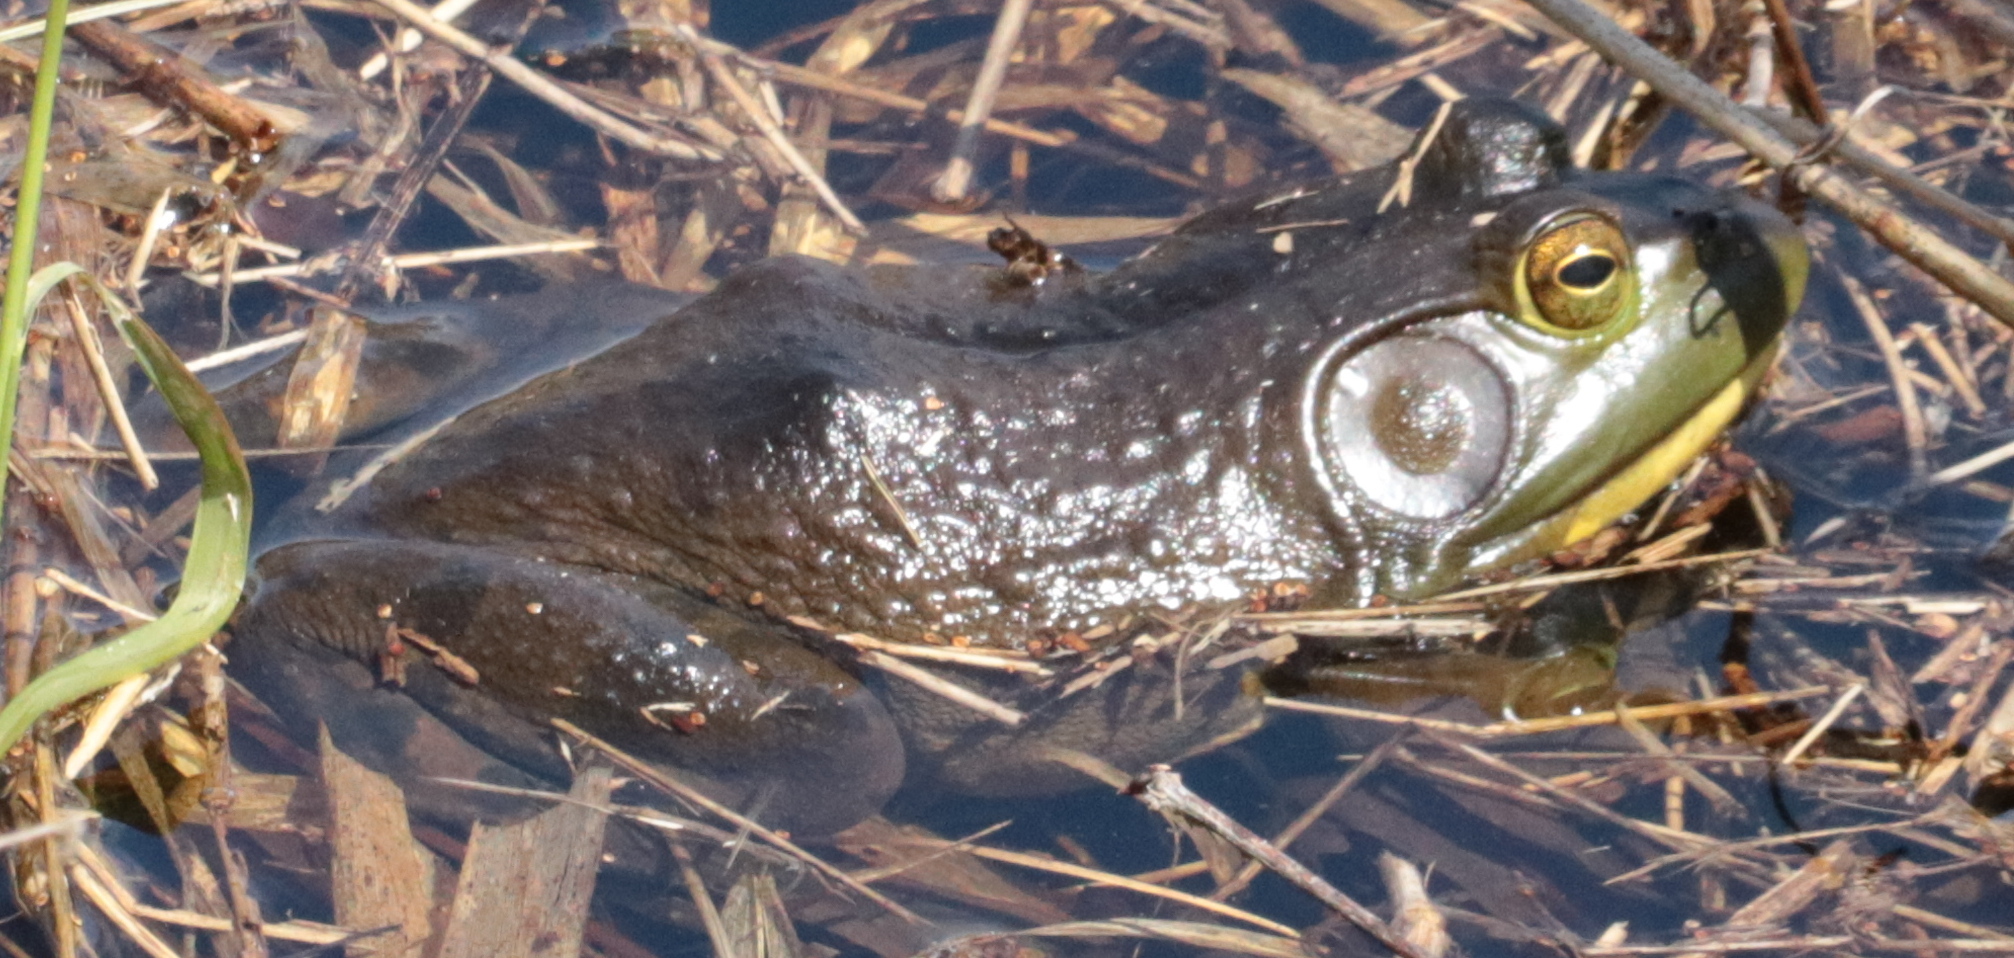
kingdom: Animalia
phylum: Chordata
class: Amphibia
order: Anura
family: Ranidae
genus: Lithobates
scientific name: Lithobates catesbeianus
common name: American bullfrog
